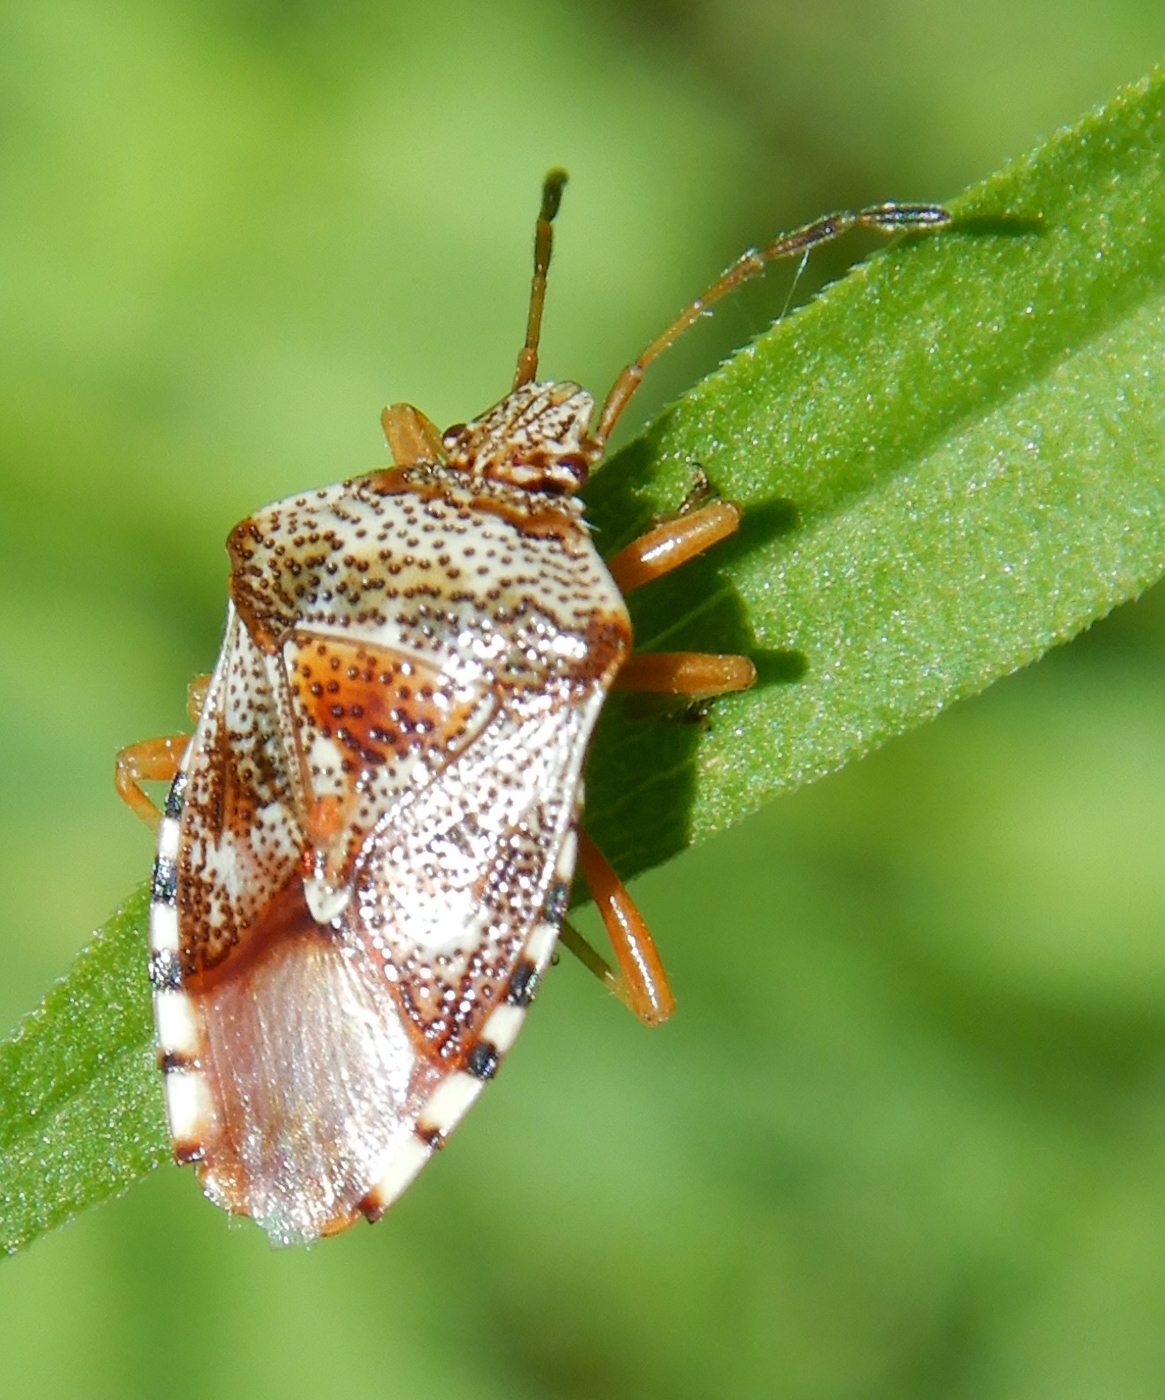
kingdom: Animalia
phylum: Arthropoda
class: Insecta
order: Hemiptera
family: Acanthosomatidae
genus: Elasmucha
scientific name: Elasmucha lateralis
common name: Shield bug
